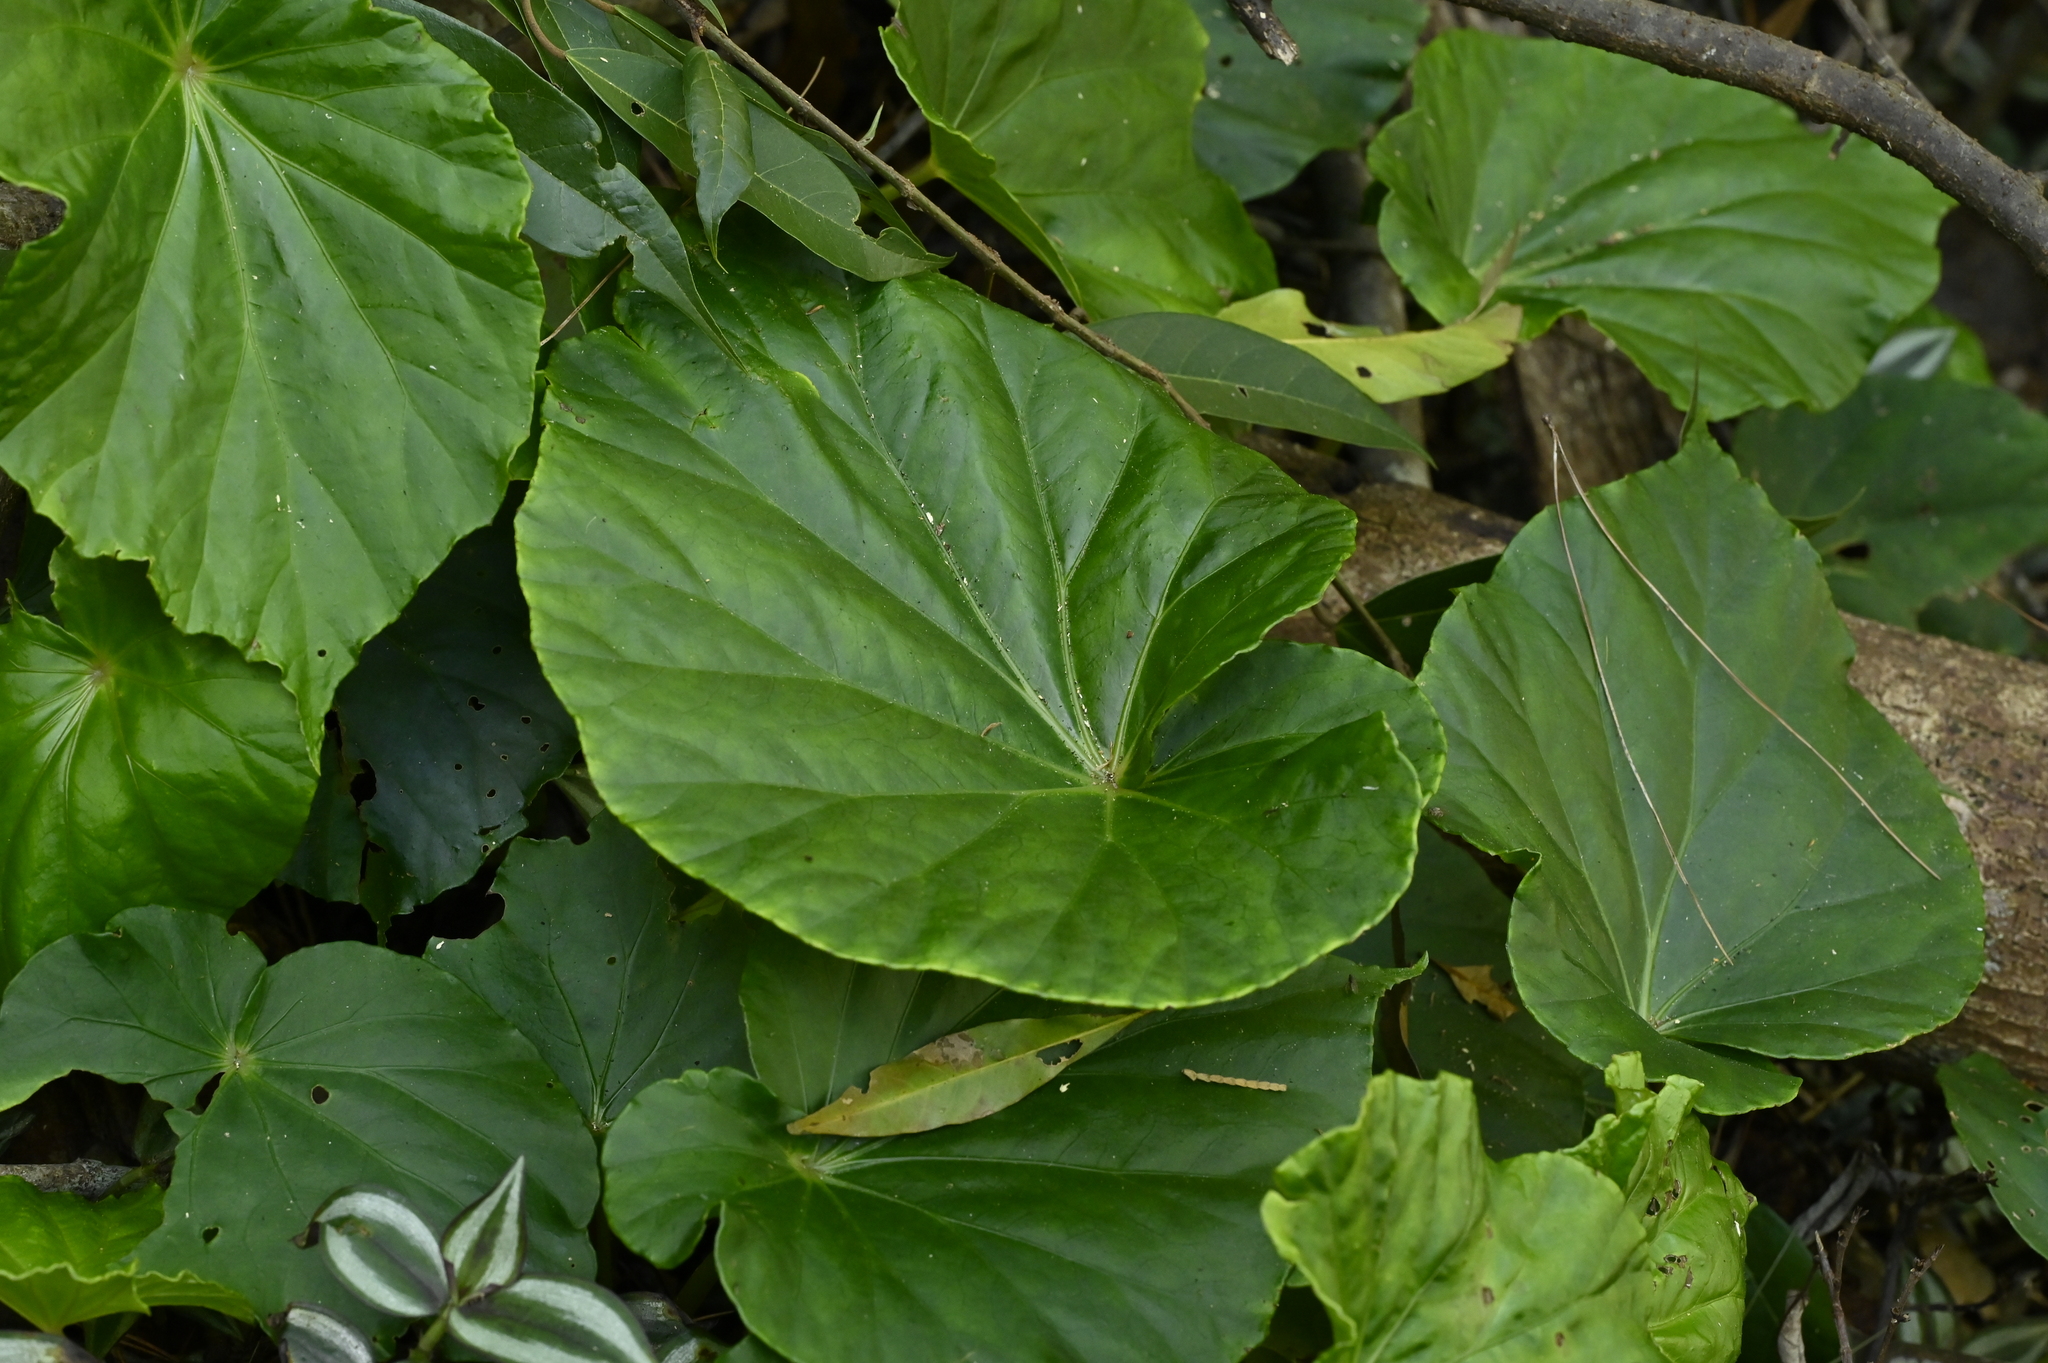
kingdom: Plantae
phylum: Tracheophyta
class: Magnoliopsida
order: Cucurbitales
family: Begoniaceae
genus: Begonia
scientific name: Begonia chitoensis
